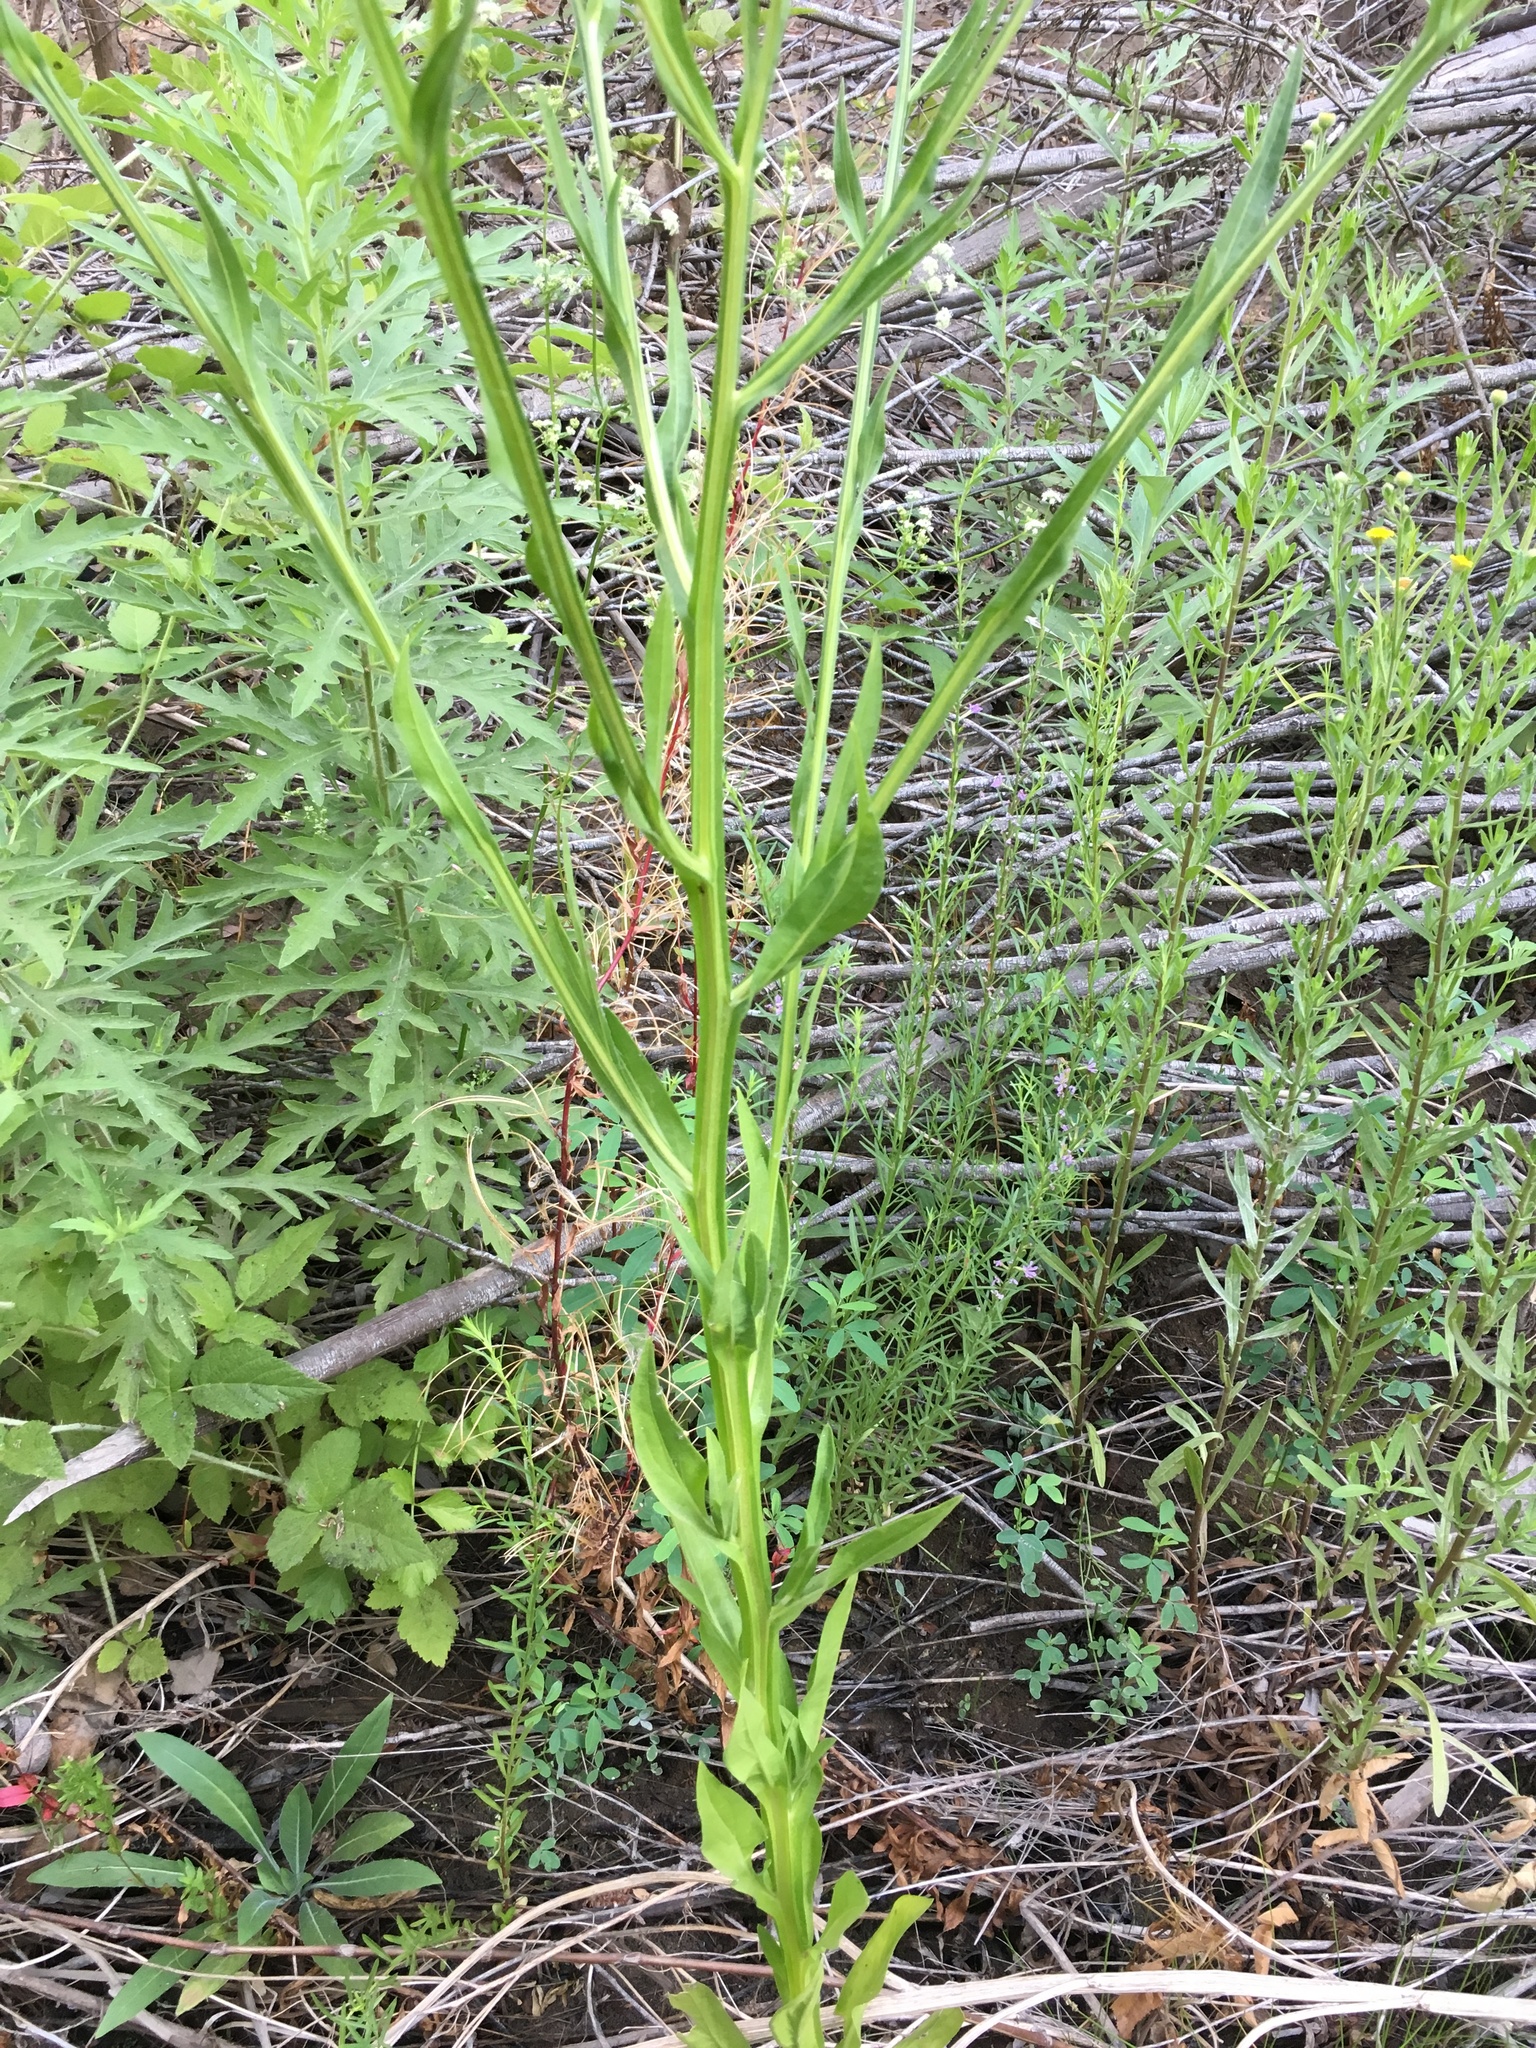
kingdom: Plantae
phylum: Tracheophyta
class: Magnoliopsida
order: Asterales
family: Asteraceae
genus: Helenium
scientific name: Helenium puberulum
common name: Sneezewort
